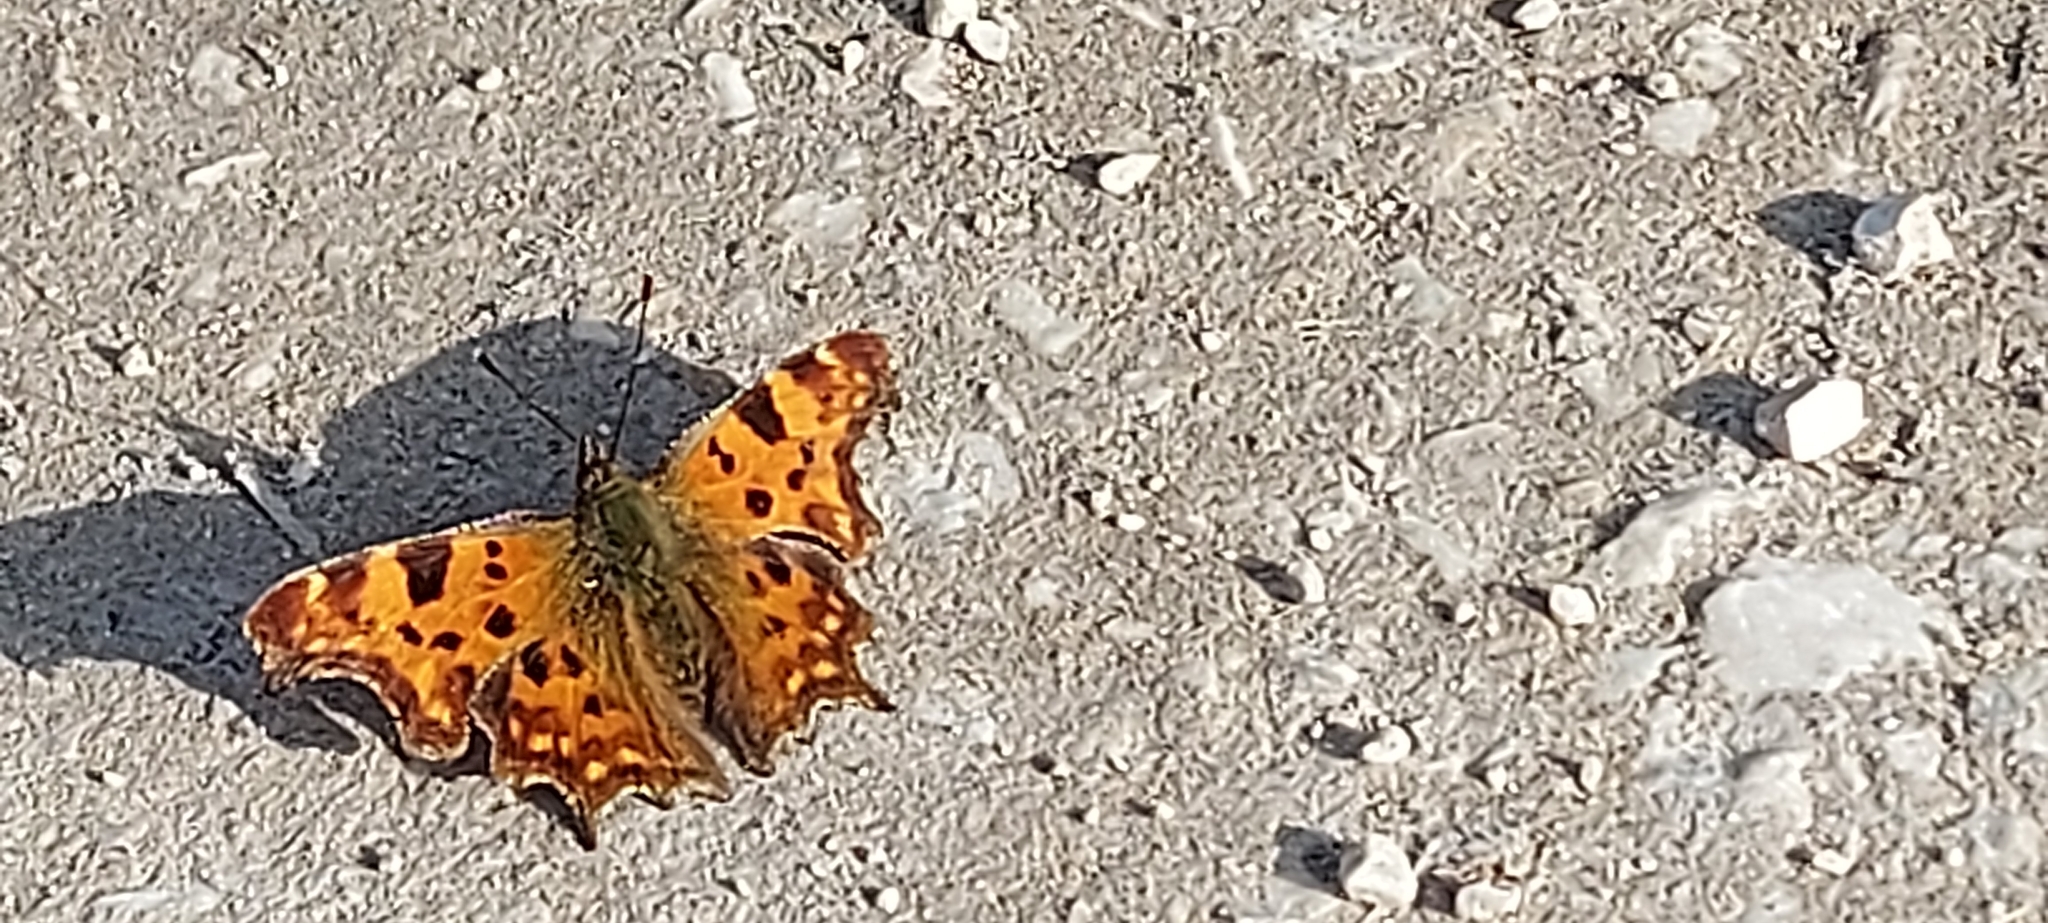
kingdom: Animalia
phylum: Arthropoda
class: Insecta
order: Lepidoptera
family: Nymphalidae
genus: Polygonia
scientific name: Polygonia c-album
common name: Comma
